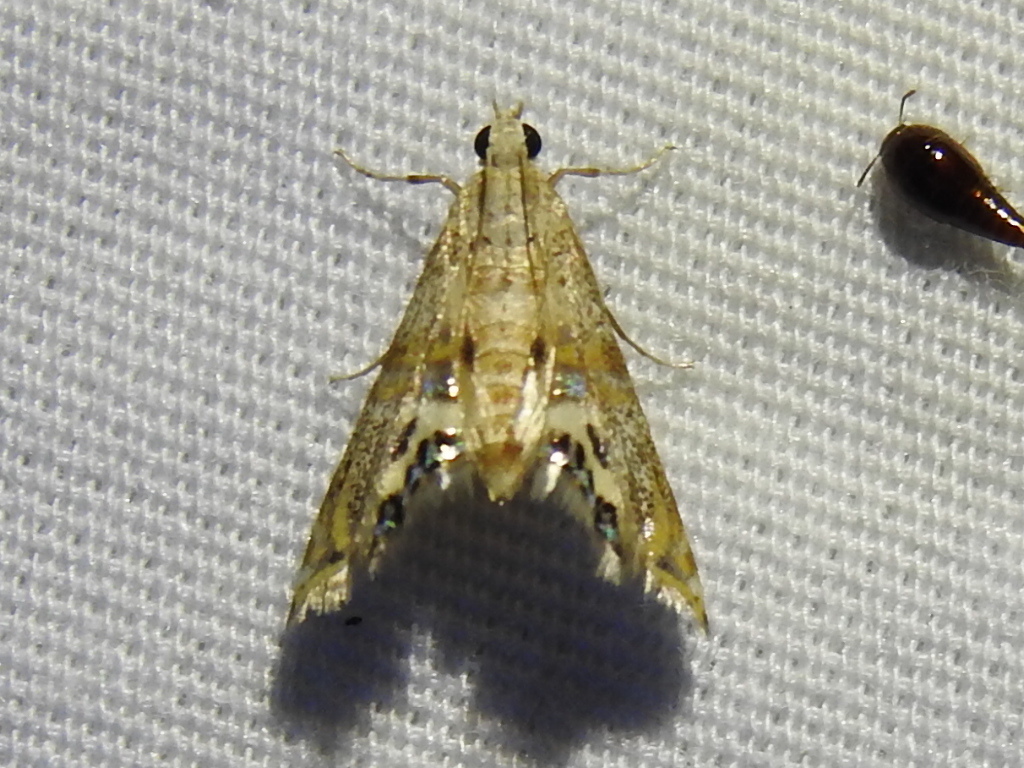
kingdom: Animalia
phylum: Arthropoda
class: Insecta
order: Lepidoptera
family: Crambidae
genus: Petrophila
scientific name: Petrophila bifascialis
